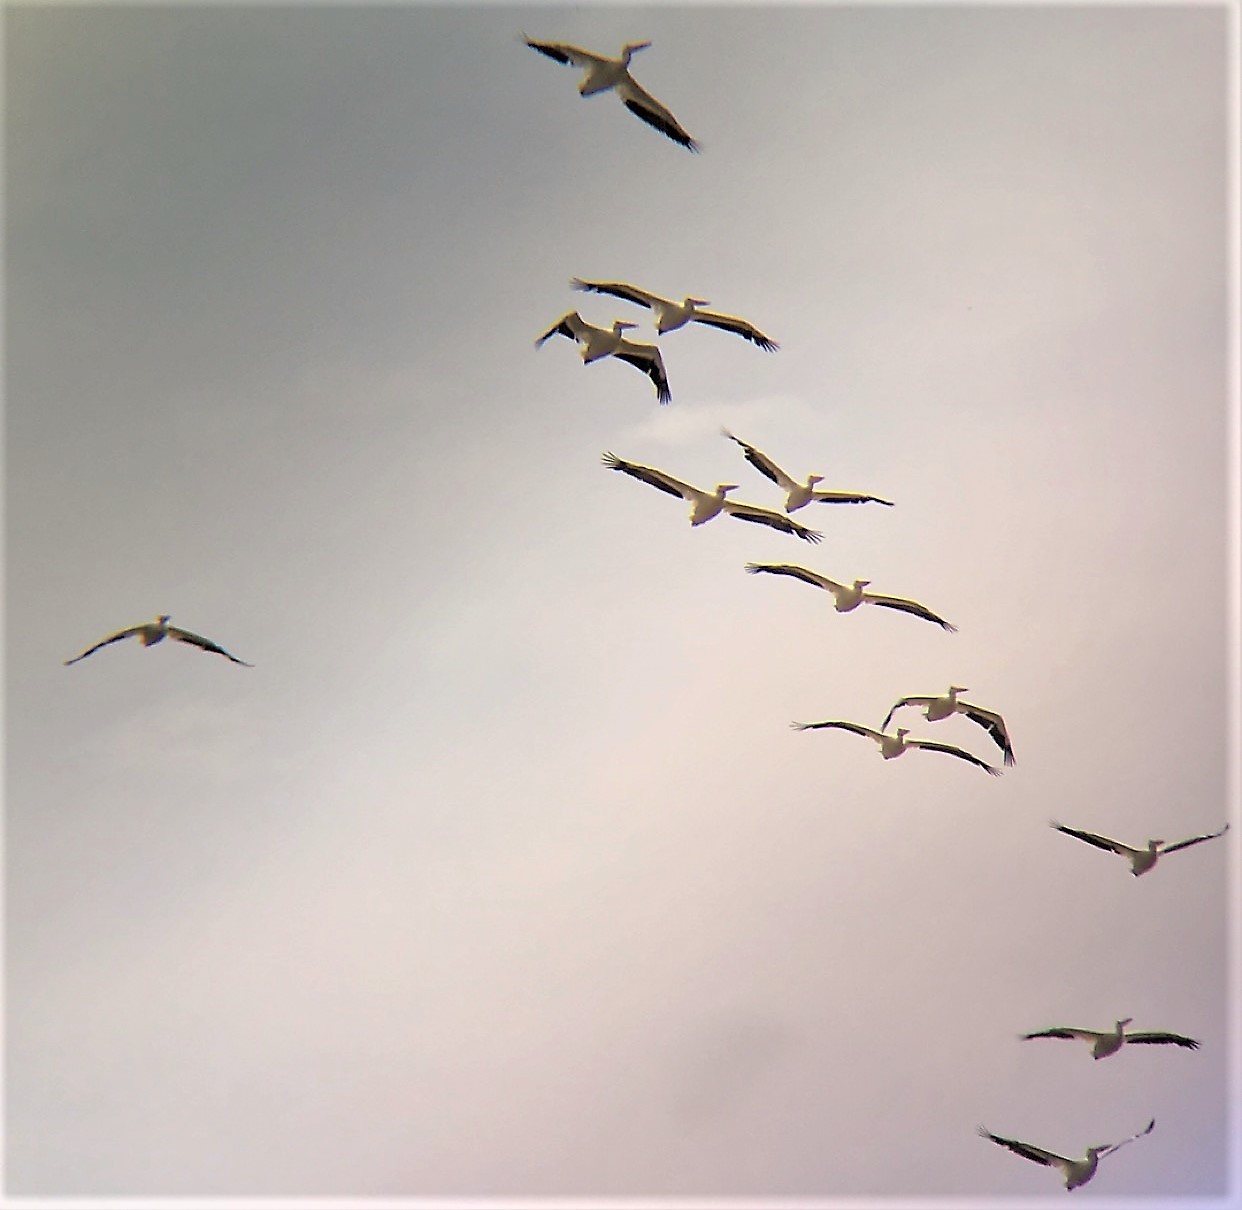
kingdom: Animalia
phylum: Chordata
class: Aves
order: Pelecaniformes
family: Pelecanidae
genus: Pelecanus
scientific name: Pelecanus erythrorhynchos
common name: American white pelican
